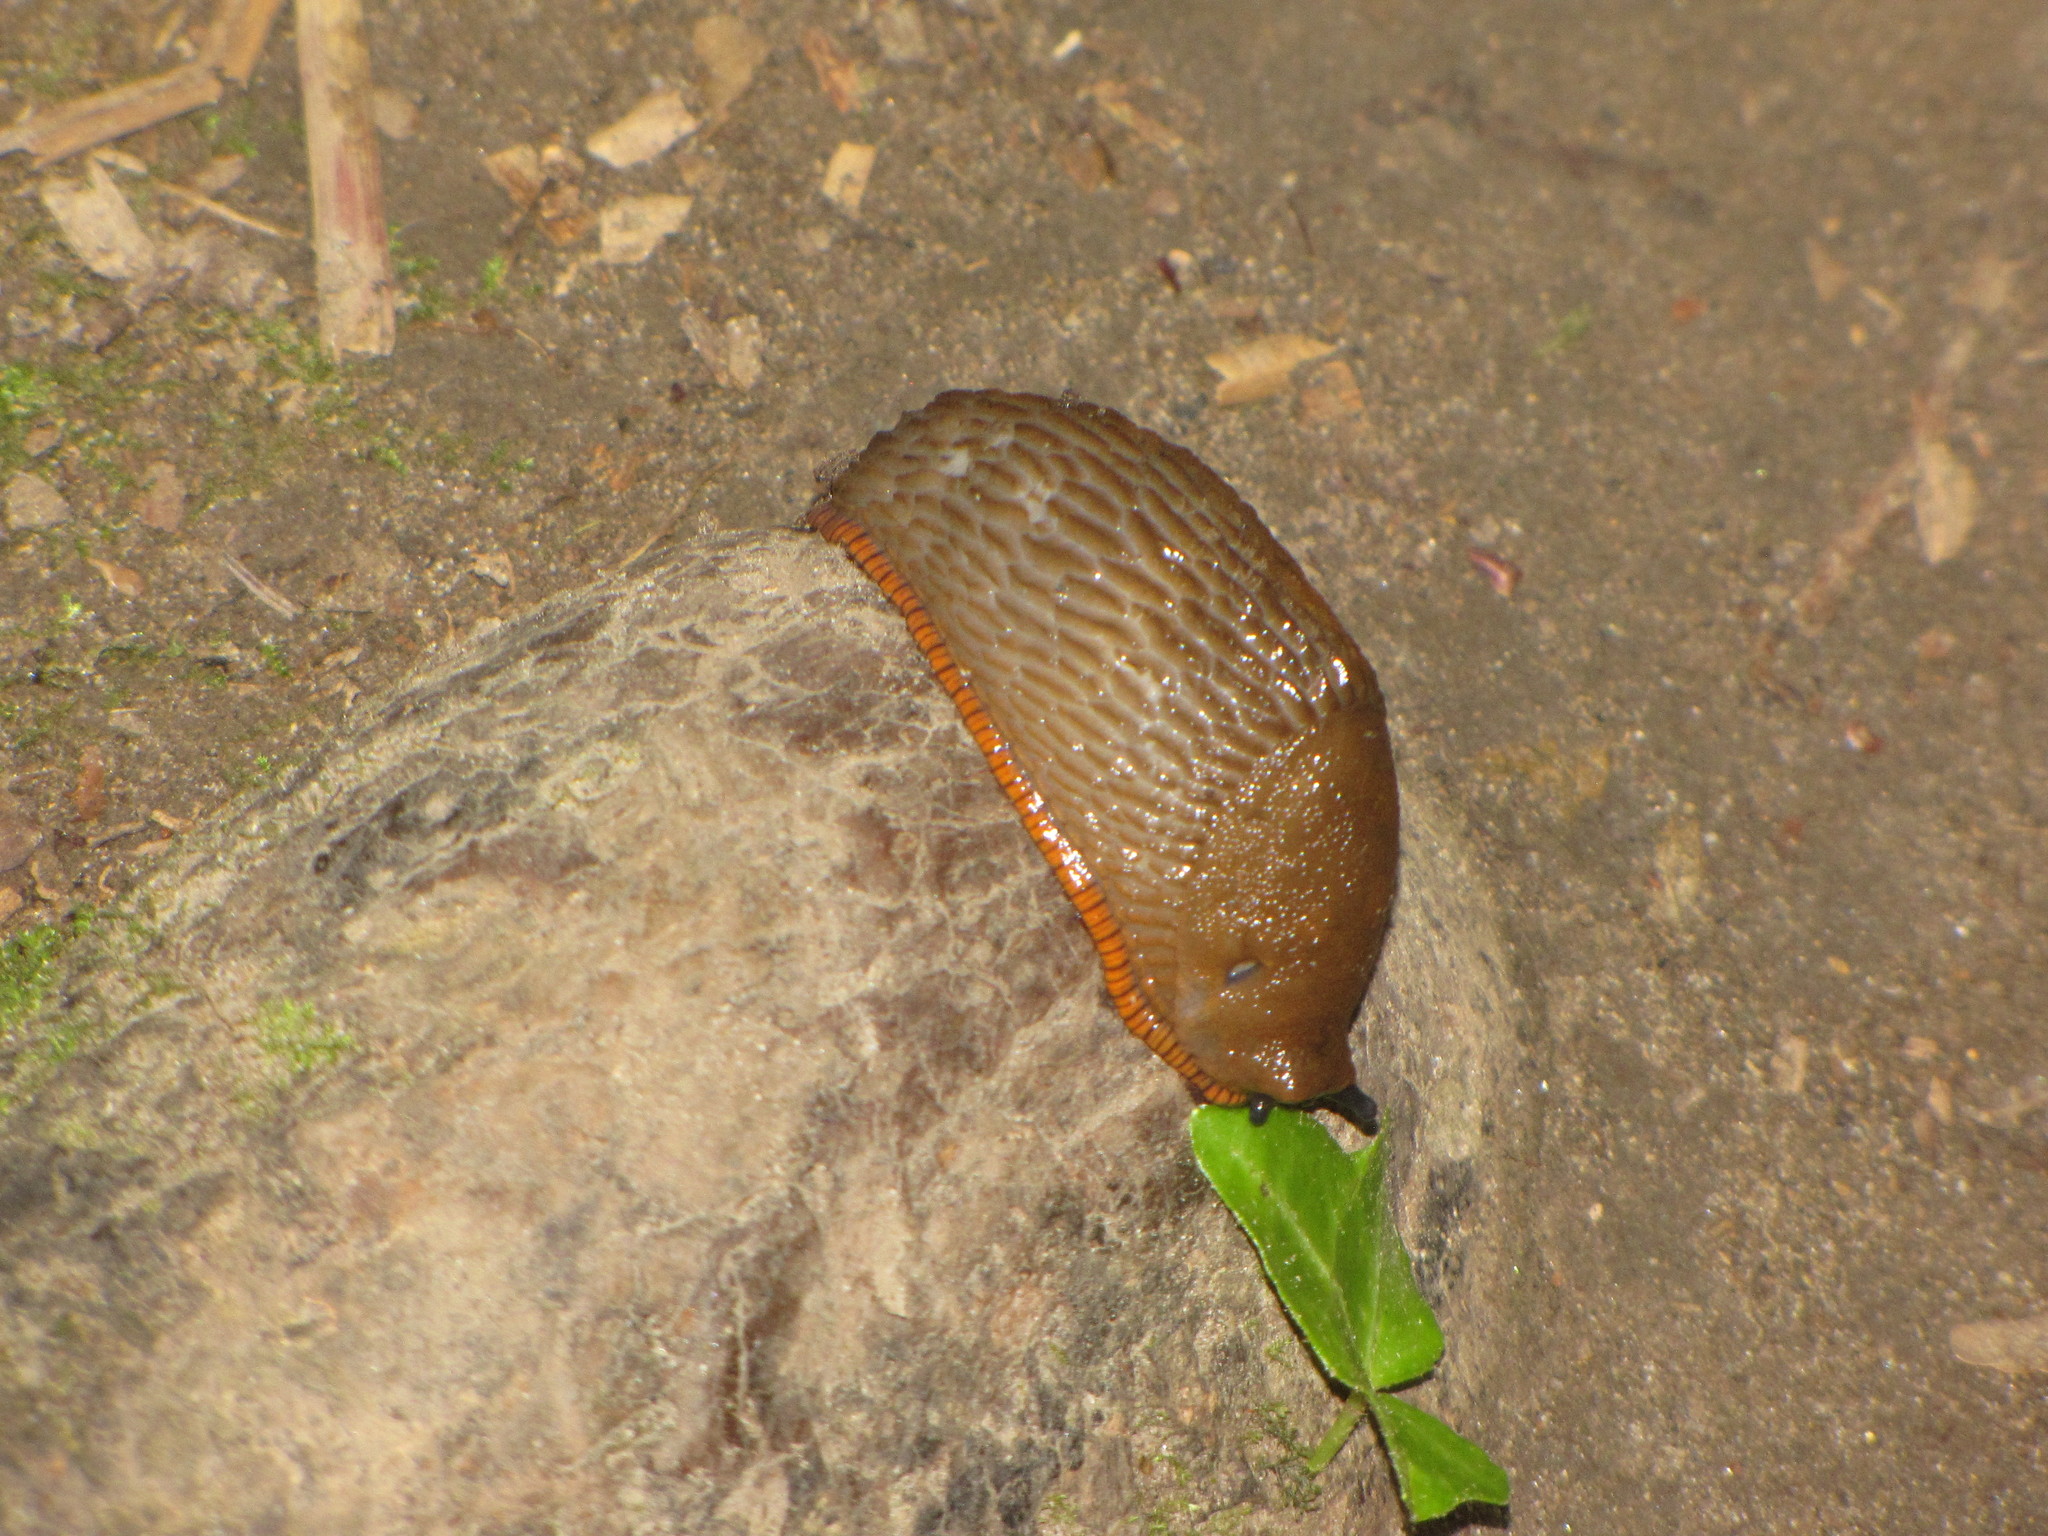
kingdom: Animalia
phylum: Mollusca
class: Gastropoda
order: Stylommatophora
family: Arionidae
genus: Arion
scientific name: Arion rufus
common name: Chocolate arion
